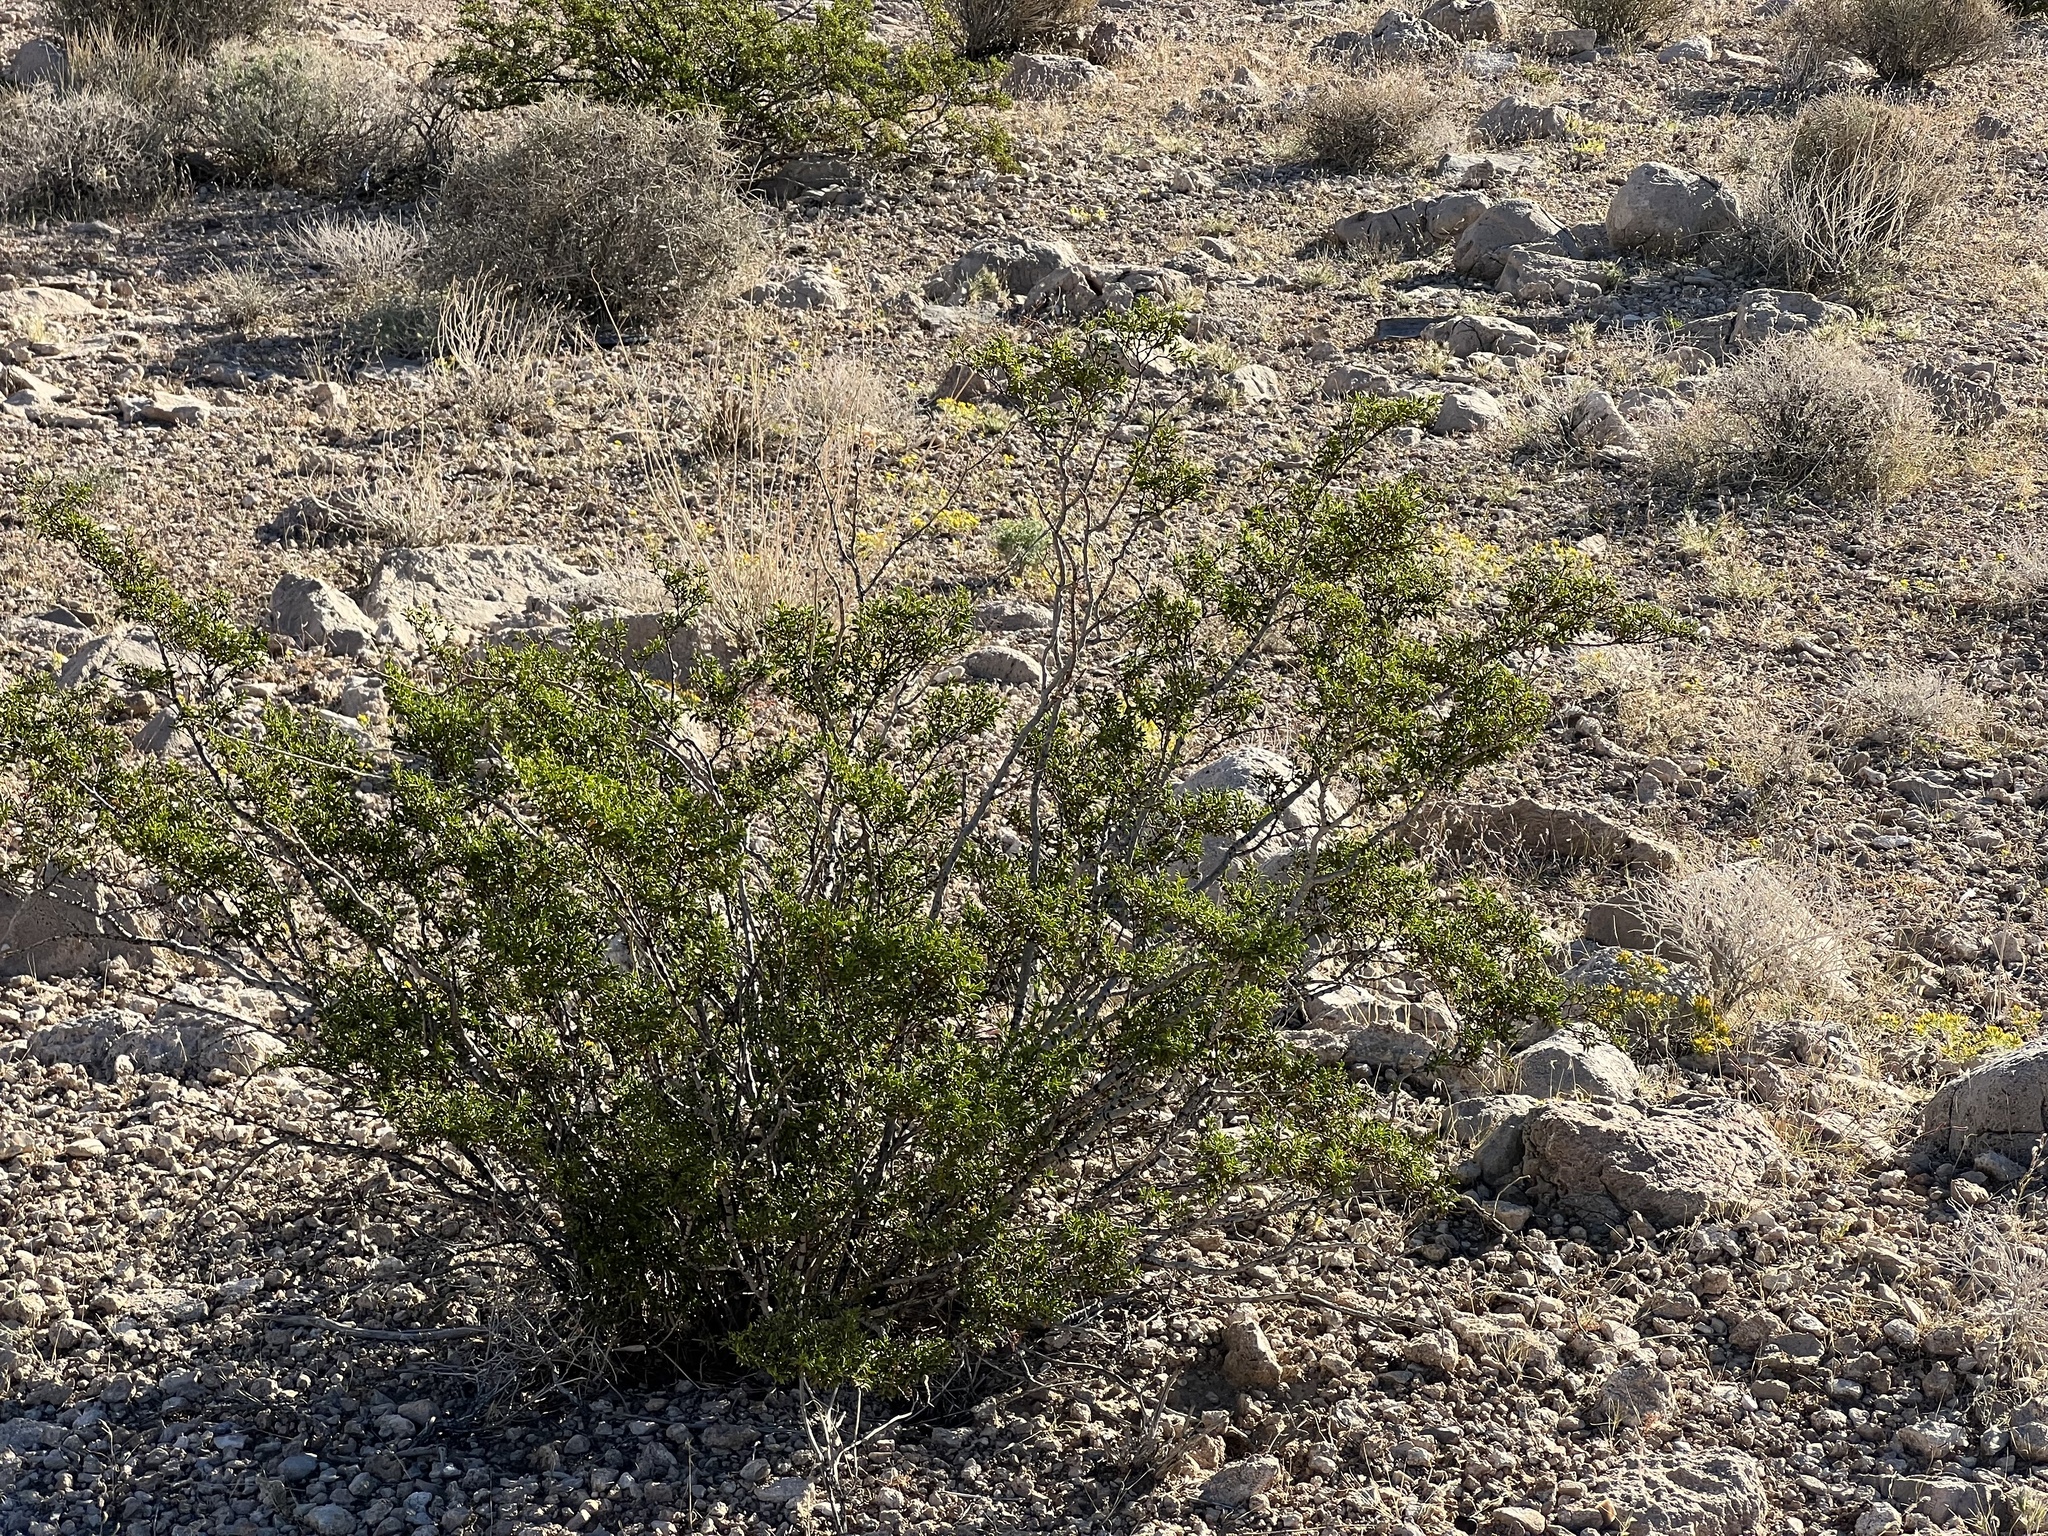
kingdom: Plantae
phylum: Tracheophyta
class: Magnoliopsida
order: Zygophyllales
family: Zygophyllaceae
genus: Larrea
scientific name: Larrea tridentata
